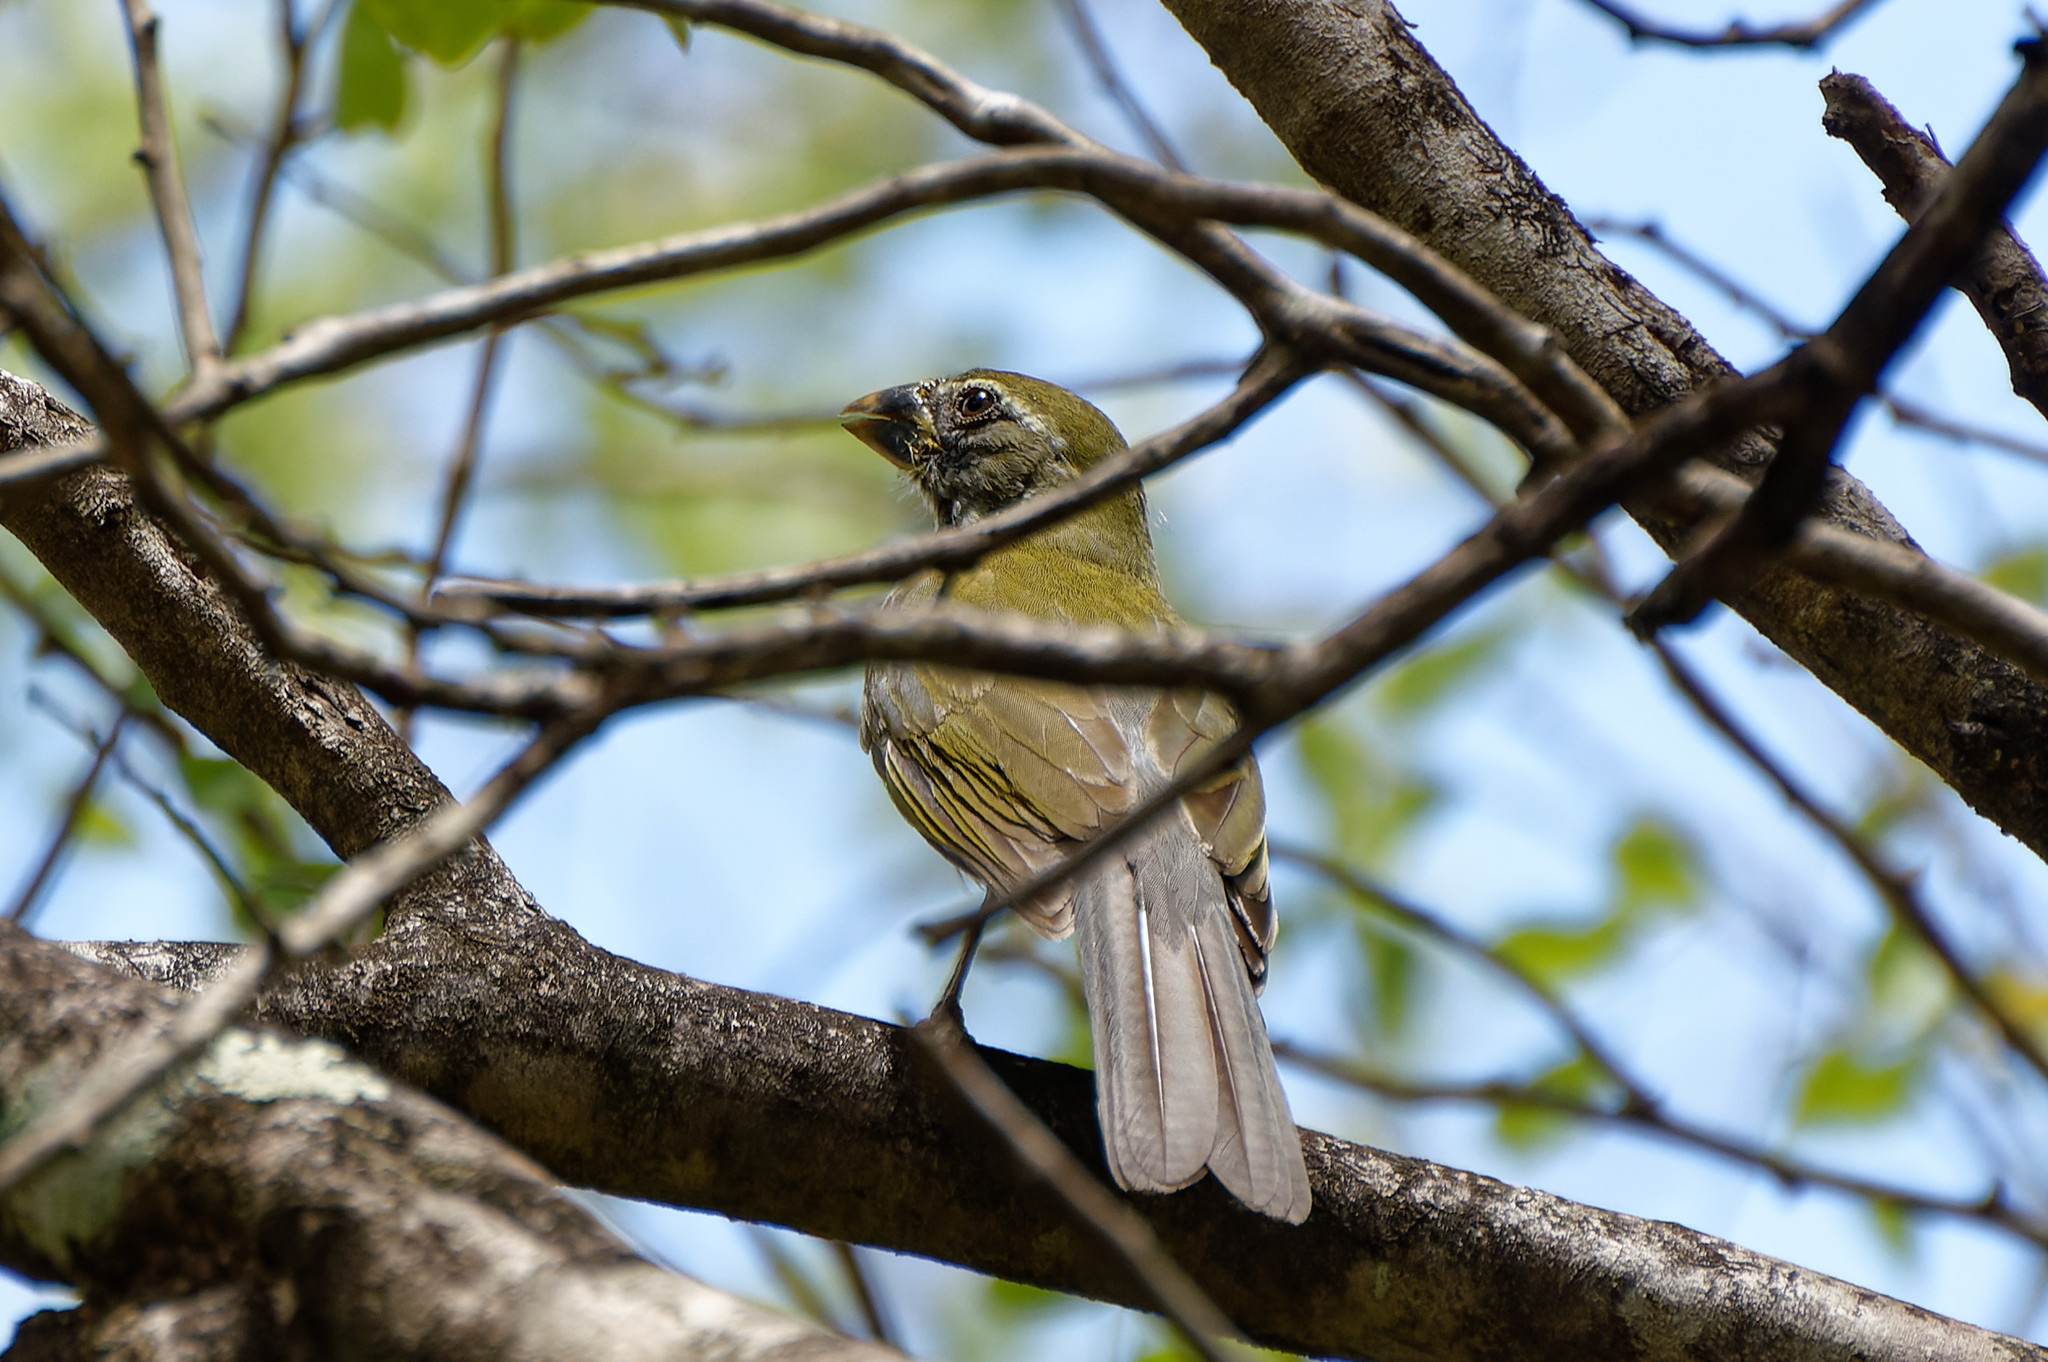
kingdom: Animalia
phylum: Chordata
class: Aves
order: Passeriformes
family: Thraupidae
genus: Saltator
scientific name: Saltator albicollis
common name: Lesser antillean saltator
